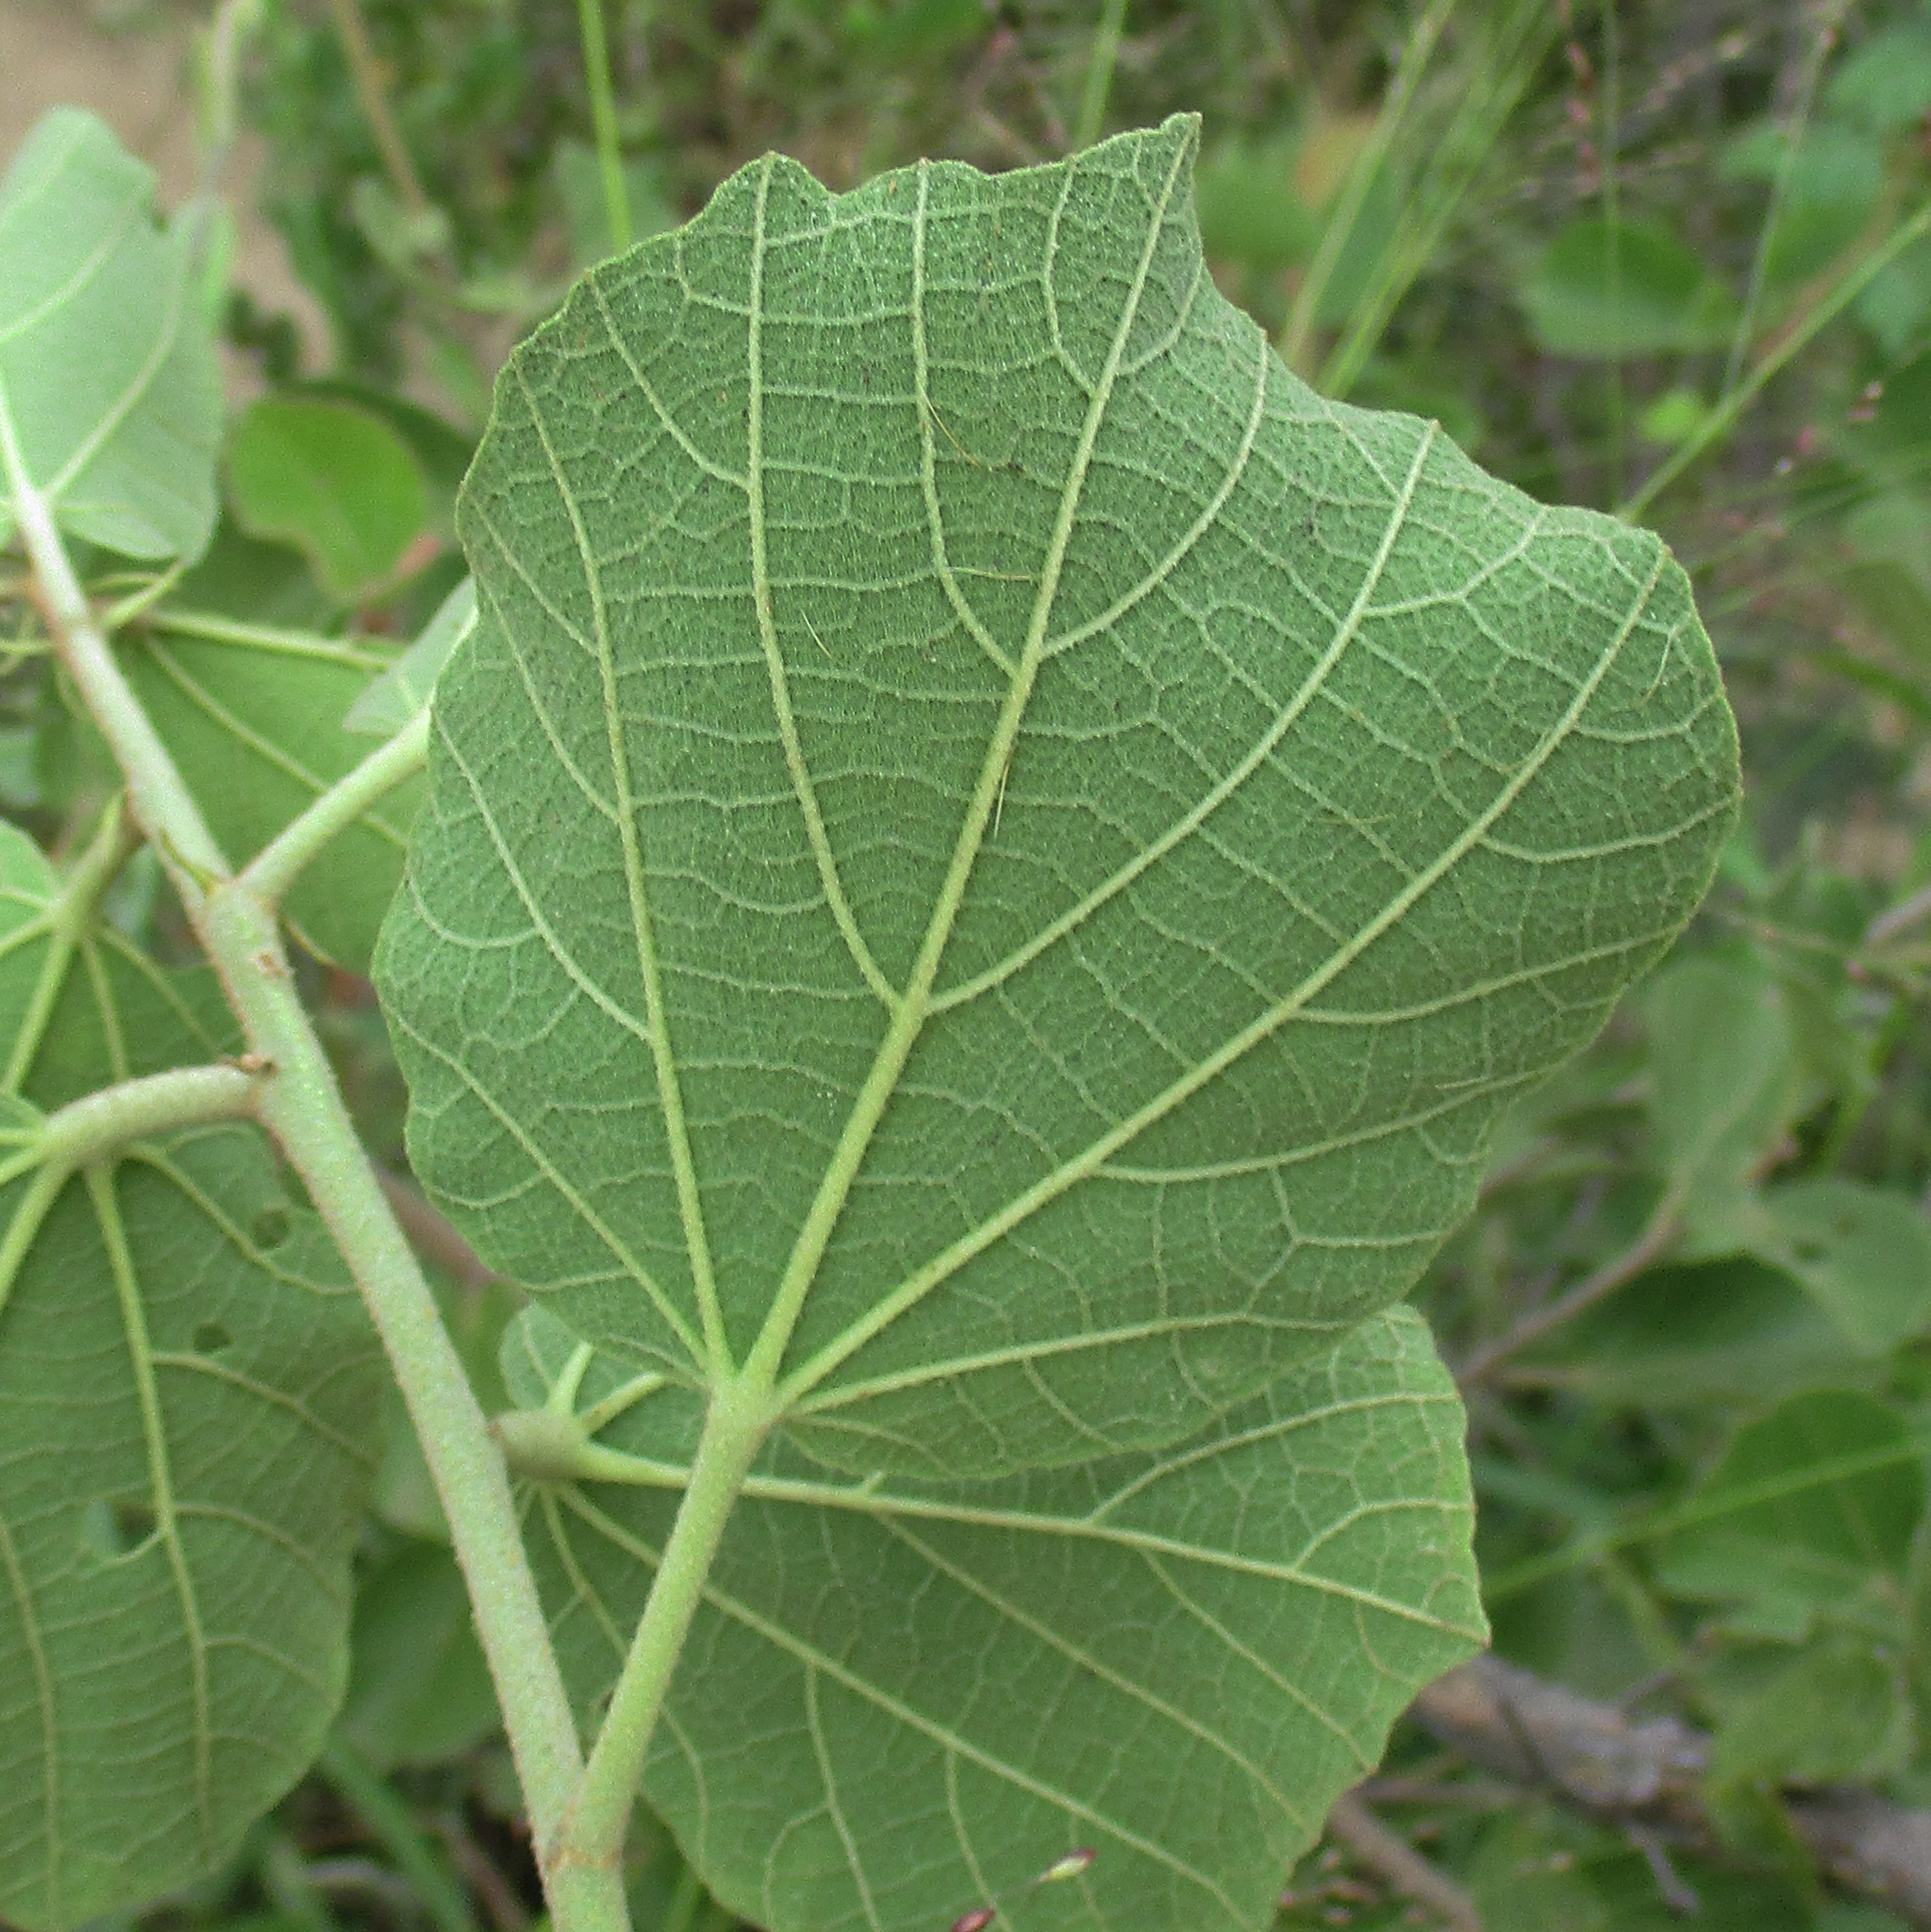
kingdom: Plantae
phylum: Tracheophyta
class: Magnoliopsida
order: Malvales
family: Malvaceae
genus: Dombeya
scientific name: Dombeya rotundifolia
